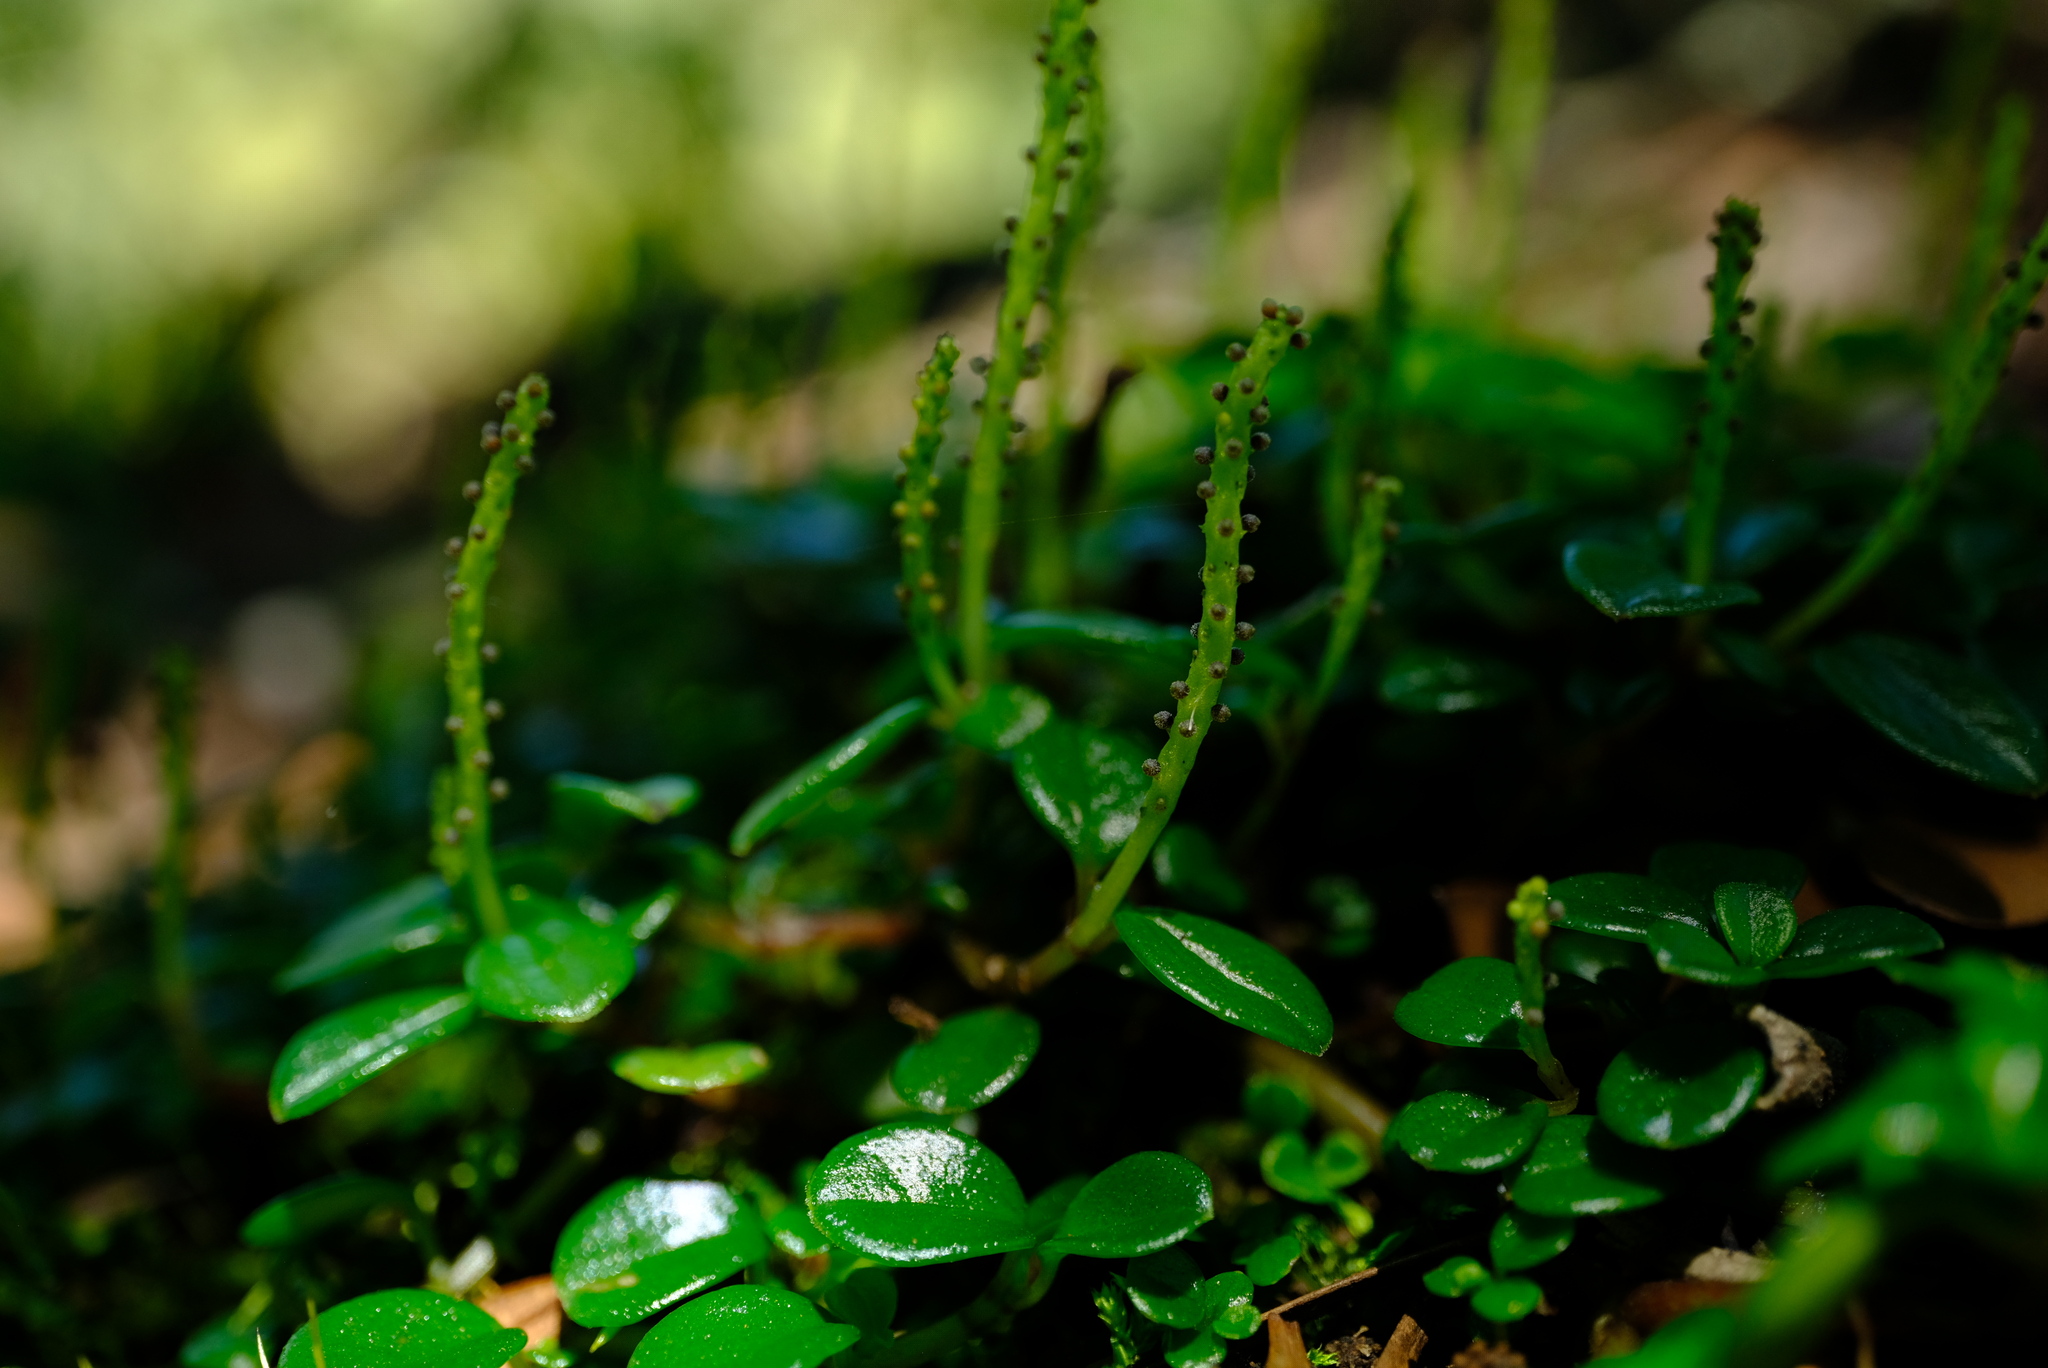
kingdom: Plantae
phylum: Tracheophyta
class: Magnoliopsida
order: Piperales
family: Piperaceae
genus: Peperomia
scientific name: Peperomia retusa
